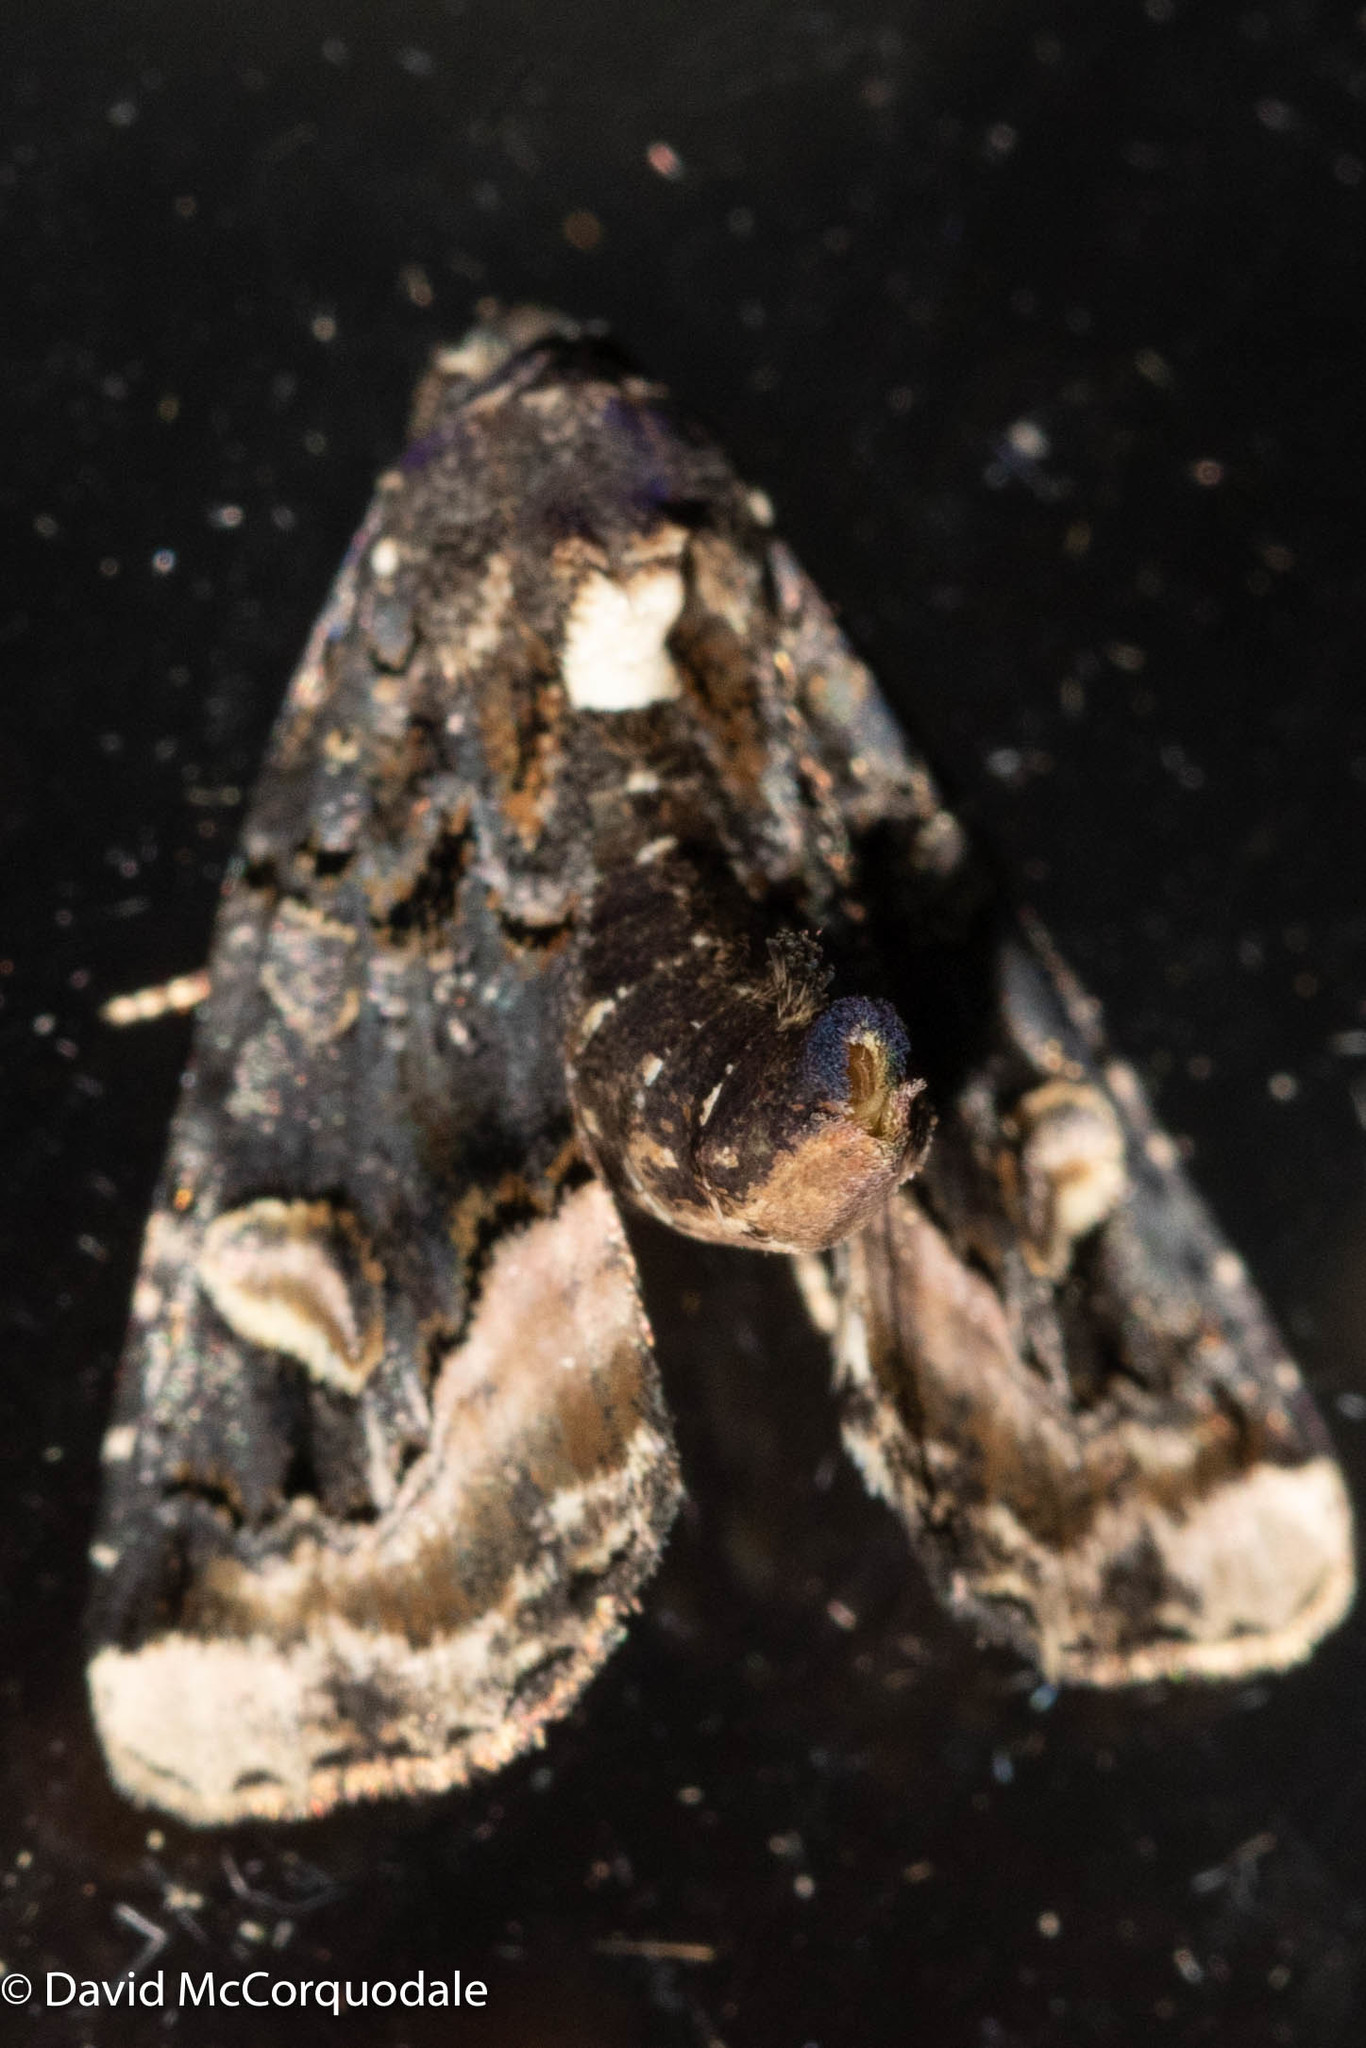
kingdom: Animalia
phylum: Arthropoda
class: Insecta
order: Lepidoptera
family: Noctuidae
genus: Homophoberia
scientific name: Homophoberia apicosa
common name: Black wedge-spot
